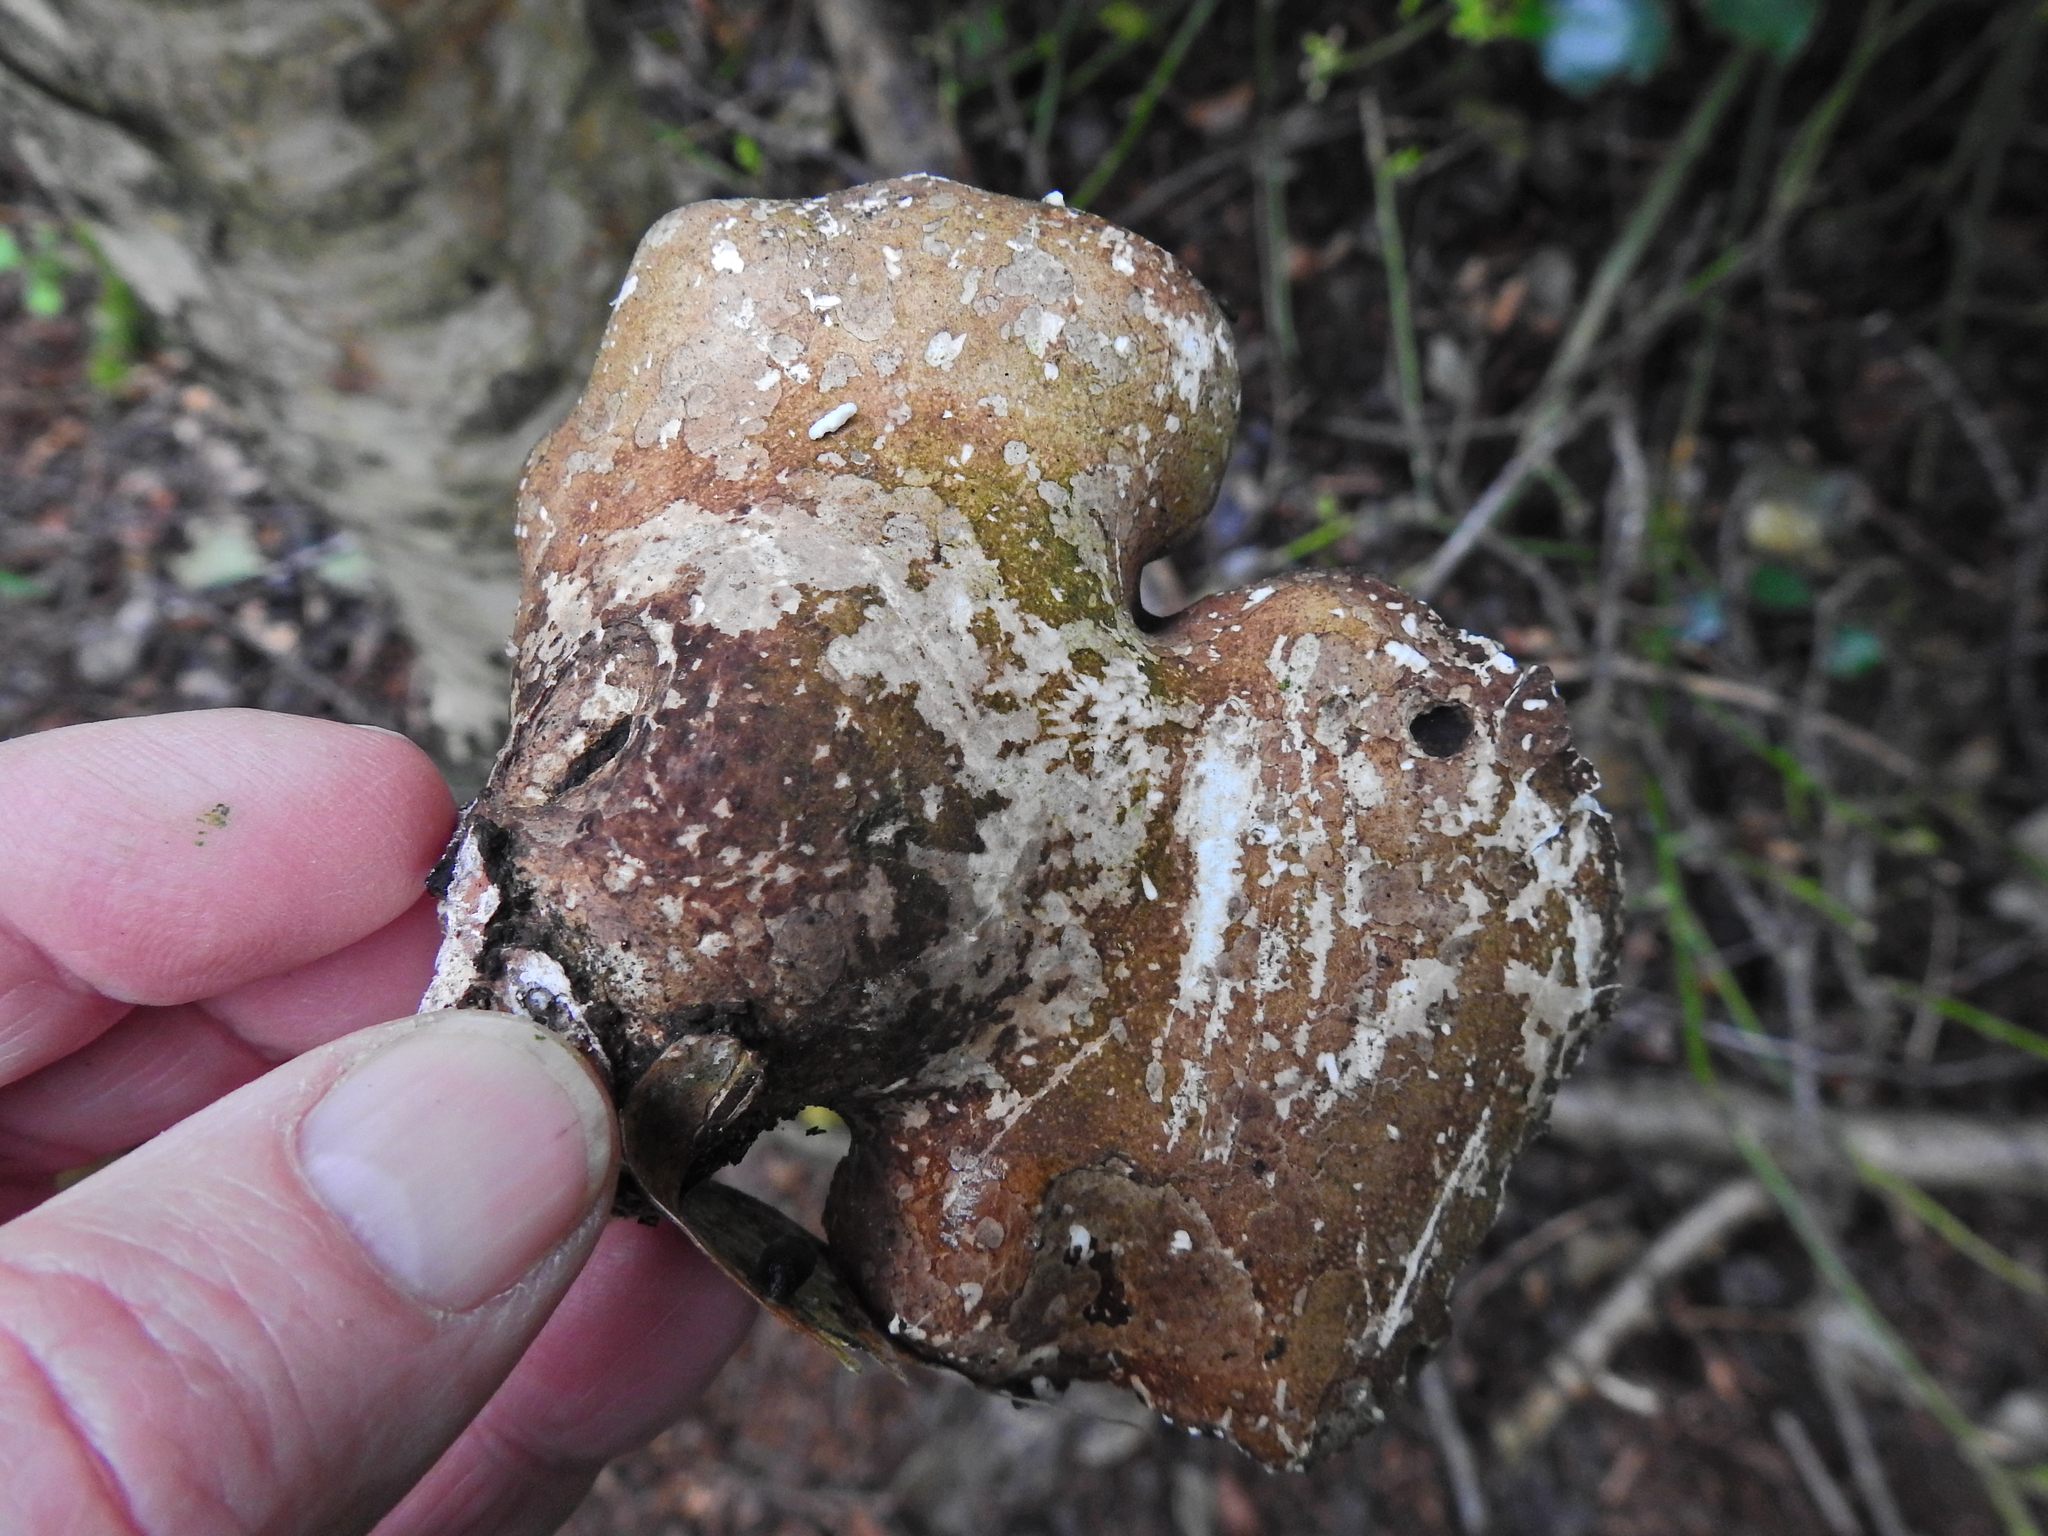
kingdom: Fungi
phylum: Basidiomycota
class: Agaricomycetes
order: Polyporales
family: Fomitopsidaceae
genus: Fomitopsis
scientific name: Fomitopsis betulina
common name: Birch polypore
